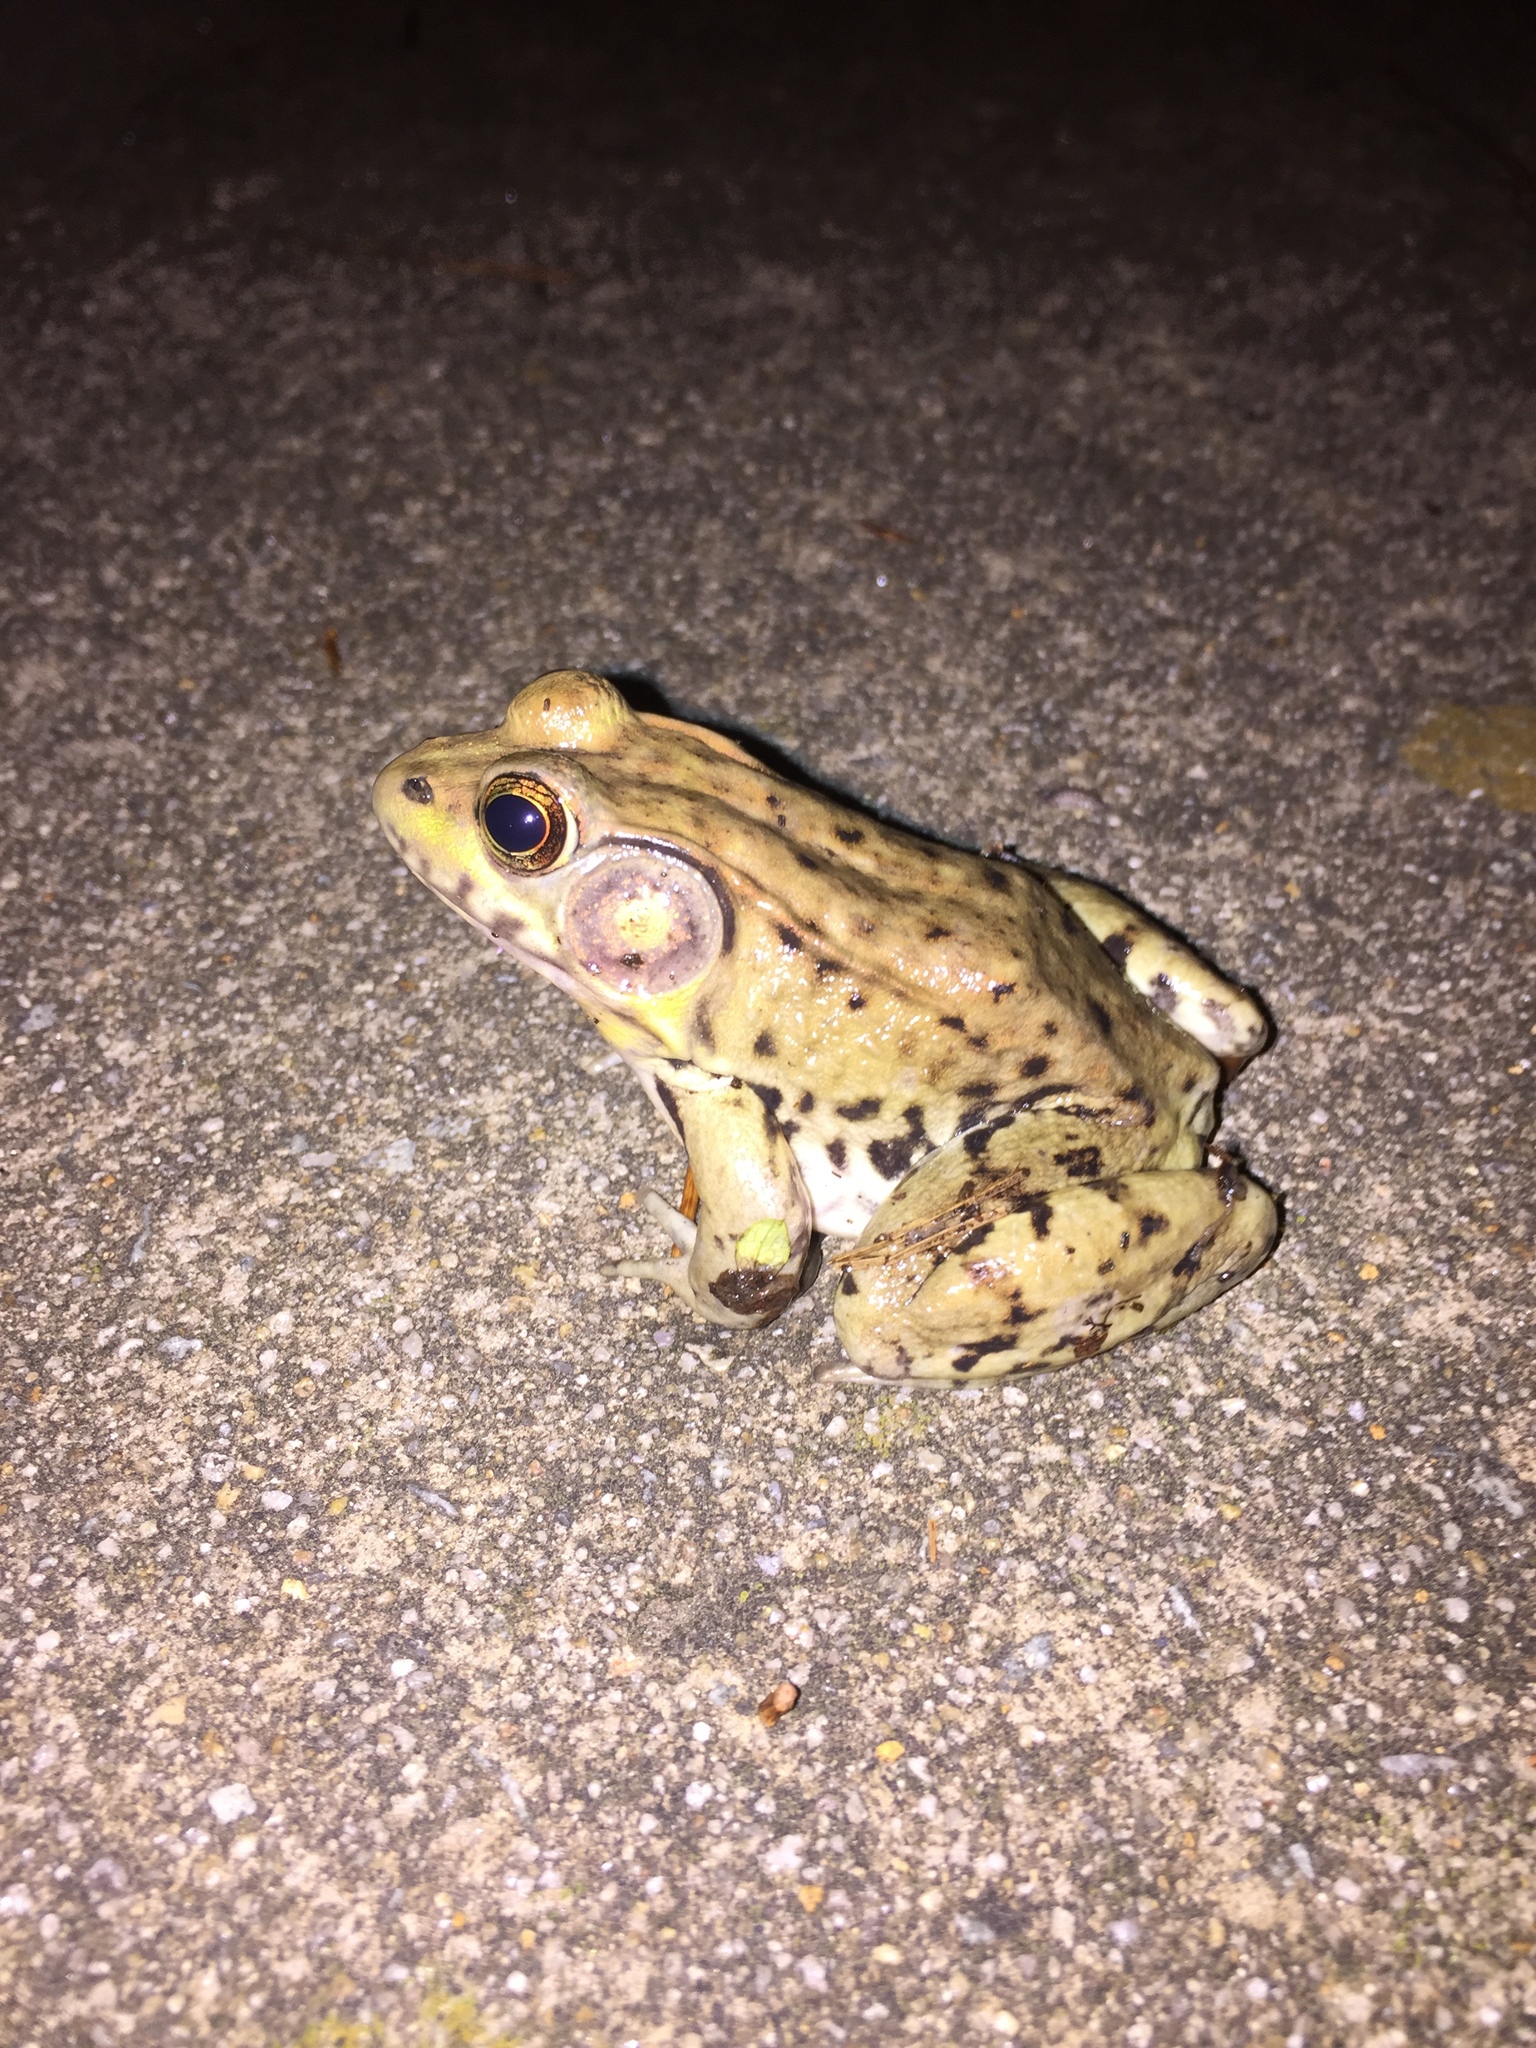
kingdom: Animalia
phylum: Chordata
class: Amphibia
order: Anura
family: Ranidae
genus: Lithobates
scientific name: Lithobates clamitans
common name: Green frog
